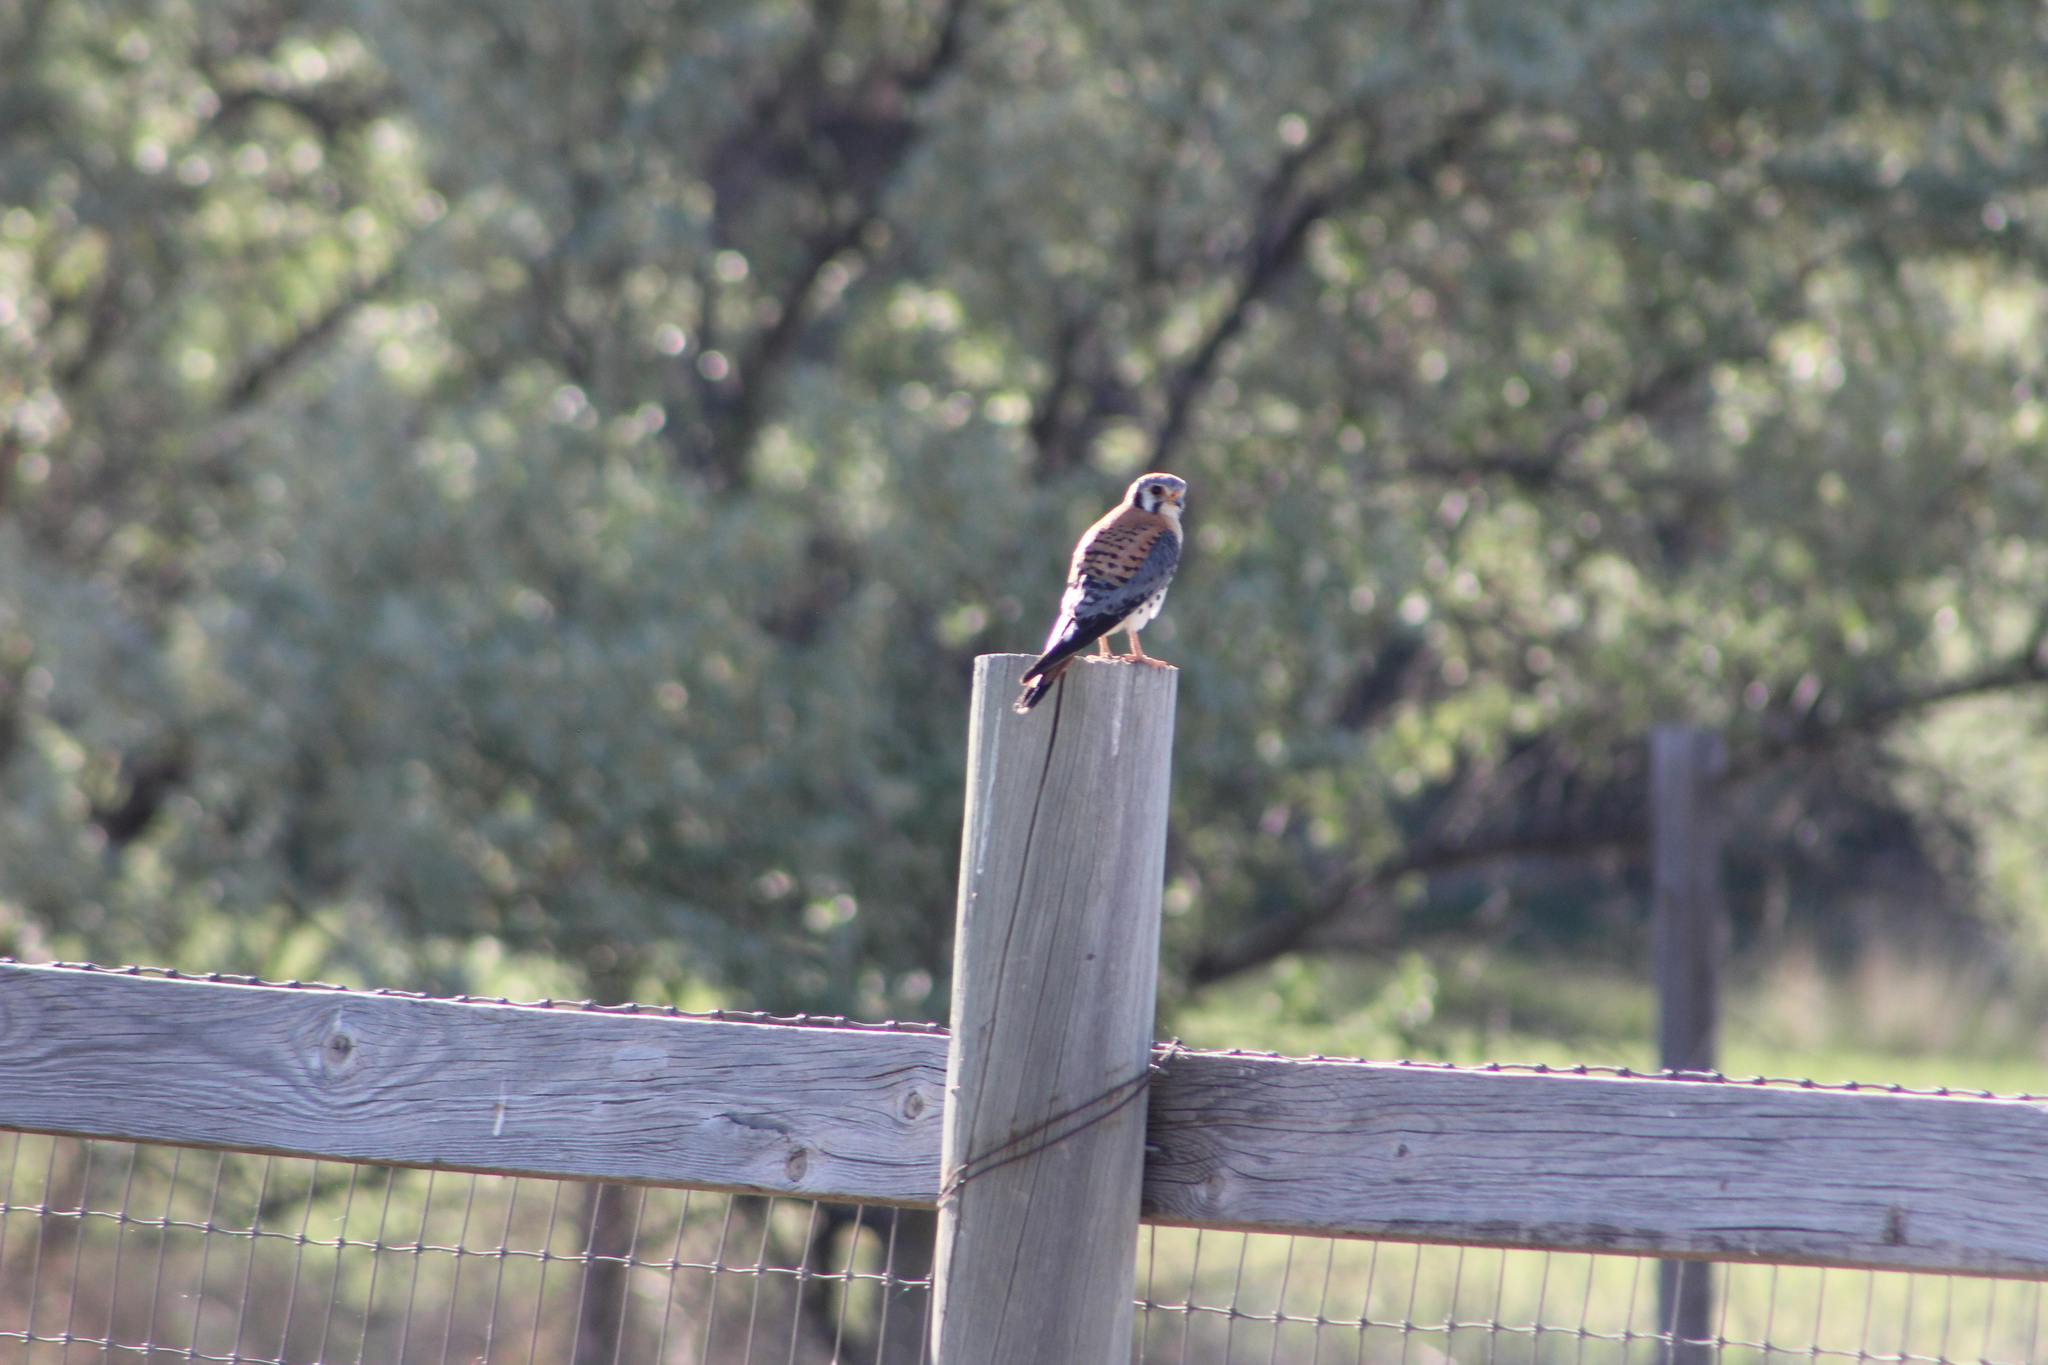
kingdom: Animalia
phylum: Chordata
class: Aves
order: Falconiformes
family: Falconidae
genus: Falco
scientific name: Falco sparverius
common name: American kestrel
